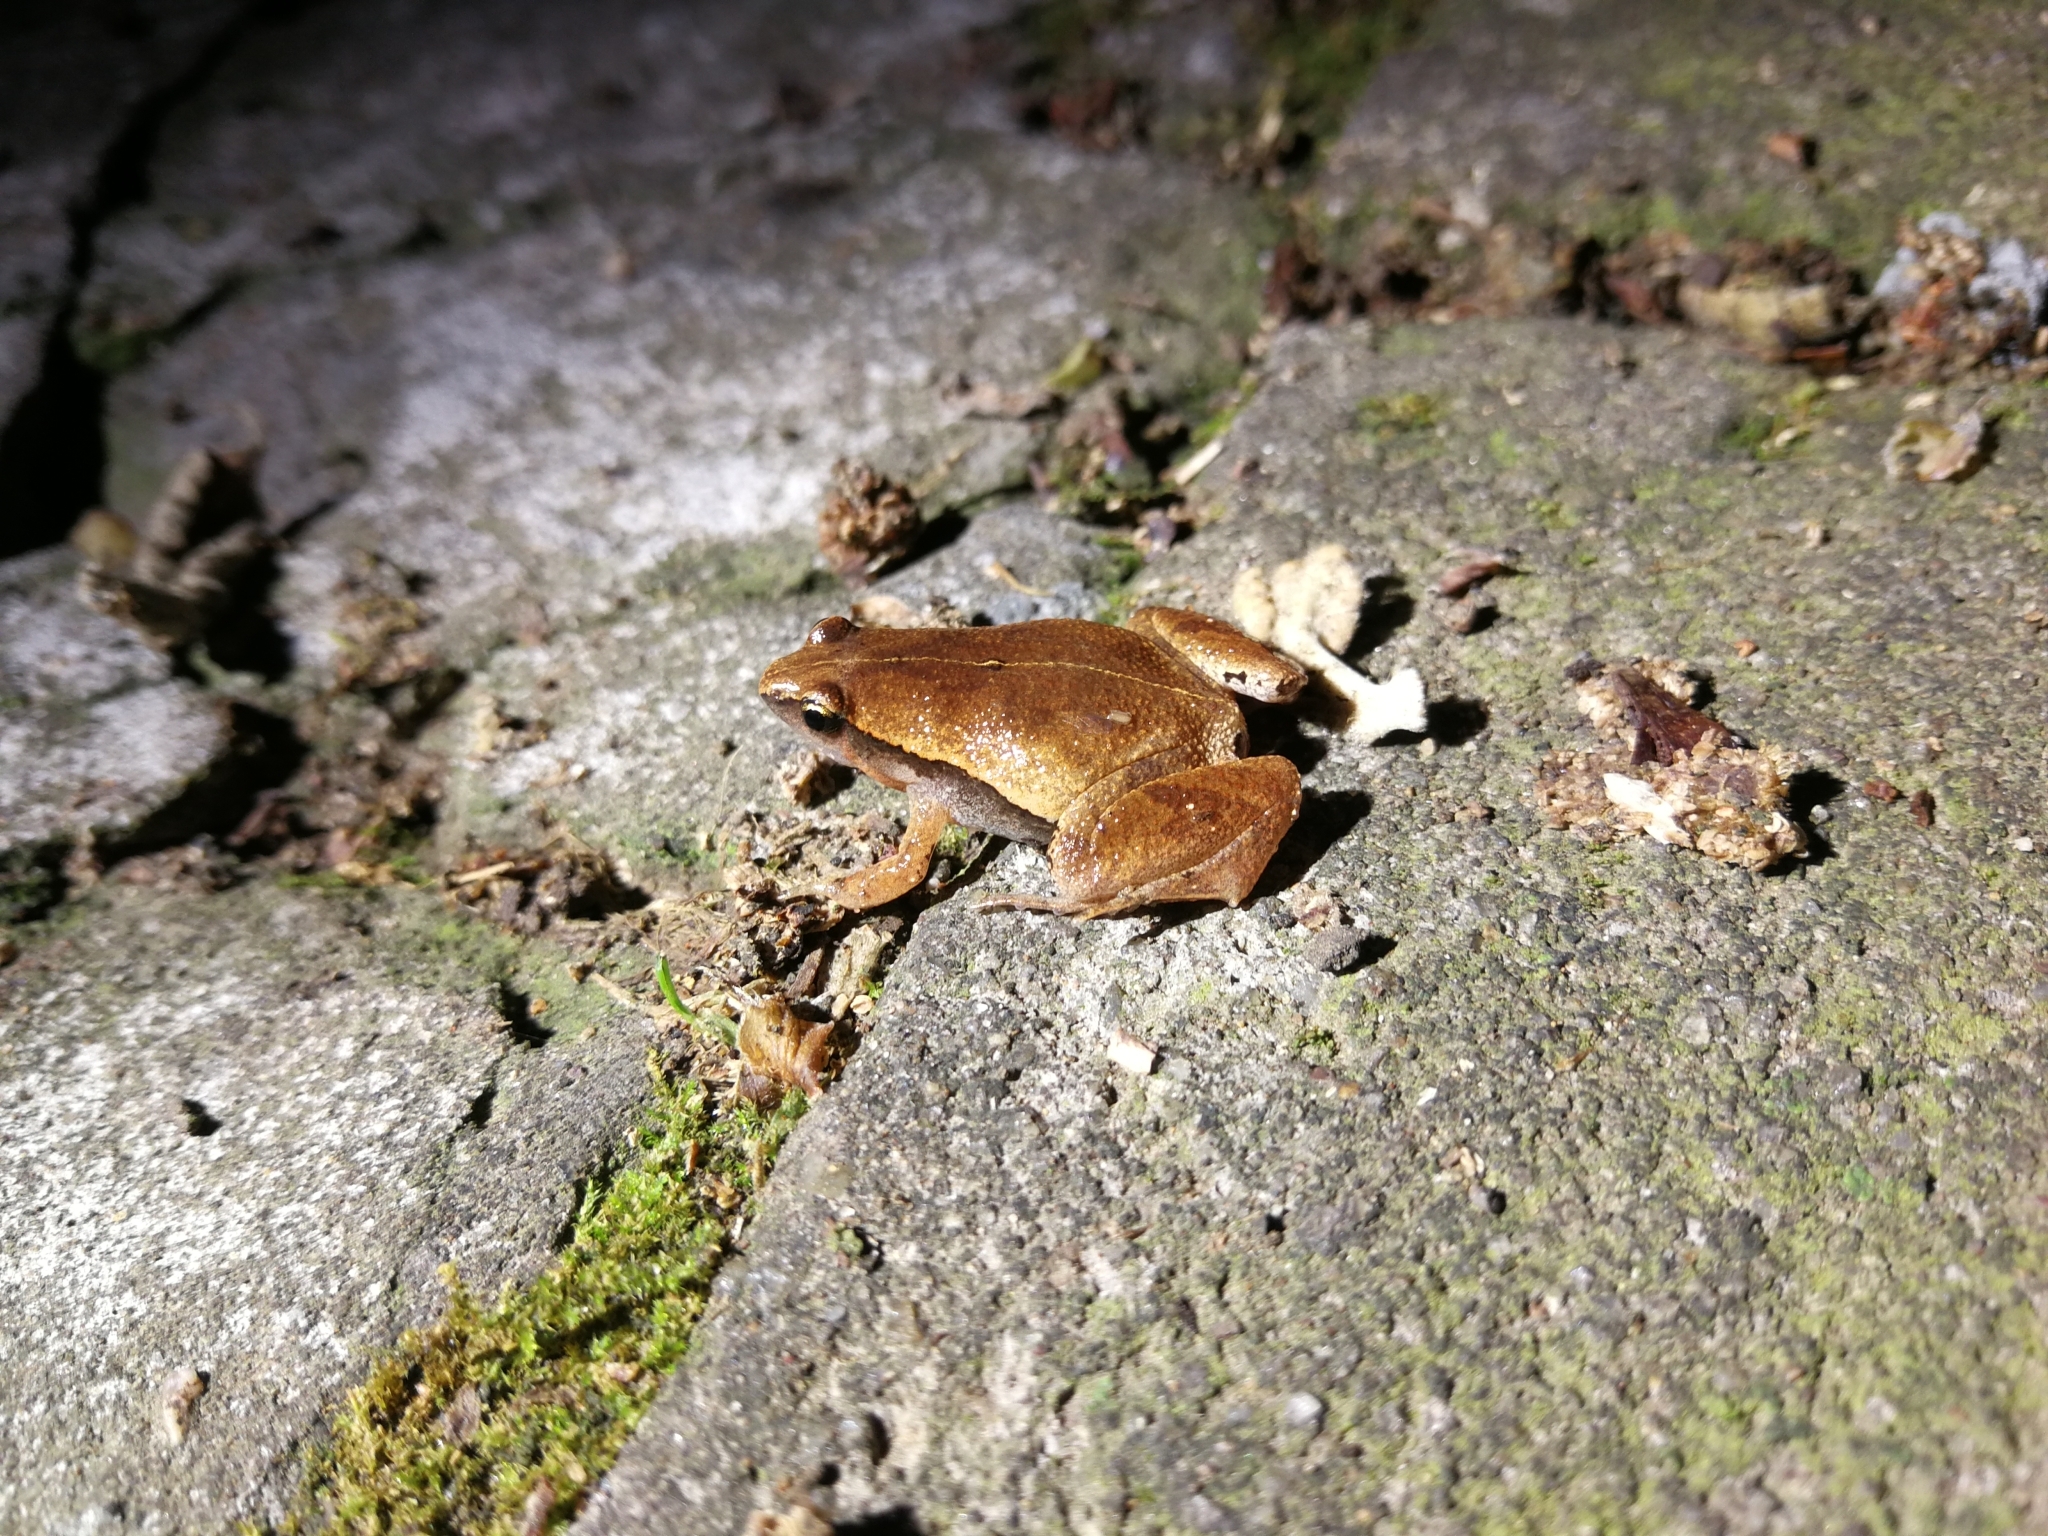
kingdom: Animalia
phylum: Chordata
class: Amphibia
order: Anura
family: Microhylidae
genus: Microhyla
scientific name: Microhyla heymonsi
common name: Taiwan rice frog,dark sided chorus frog
